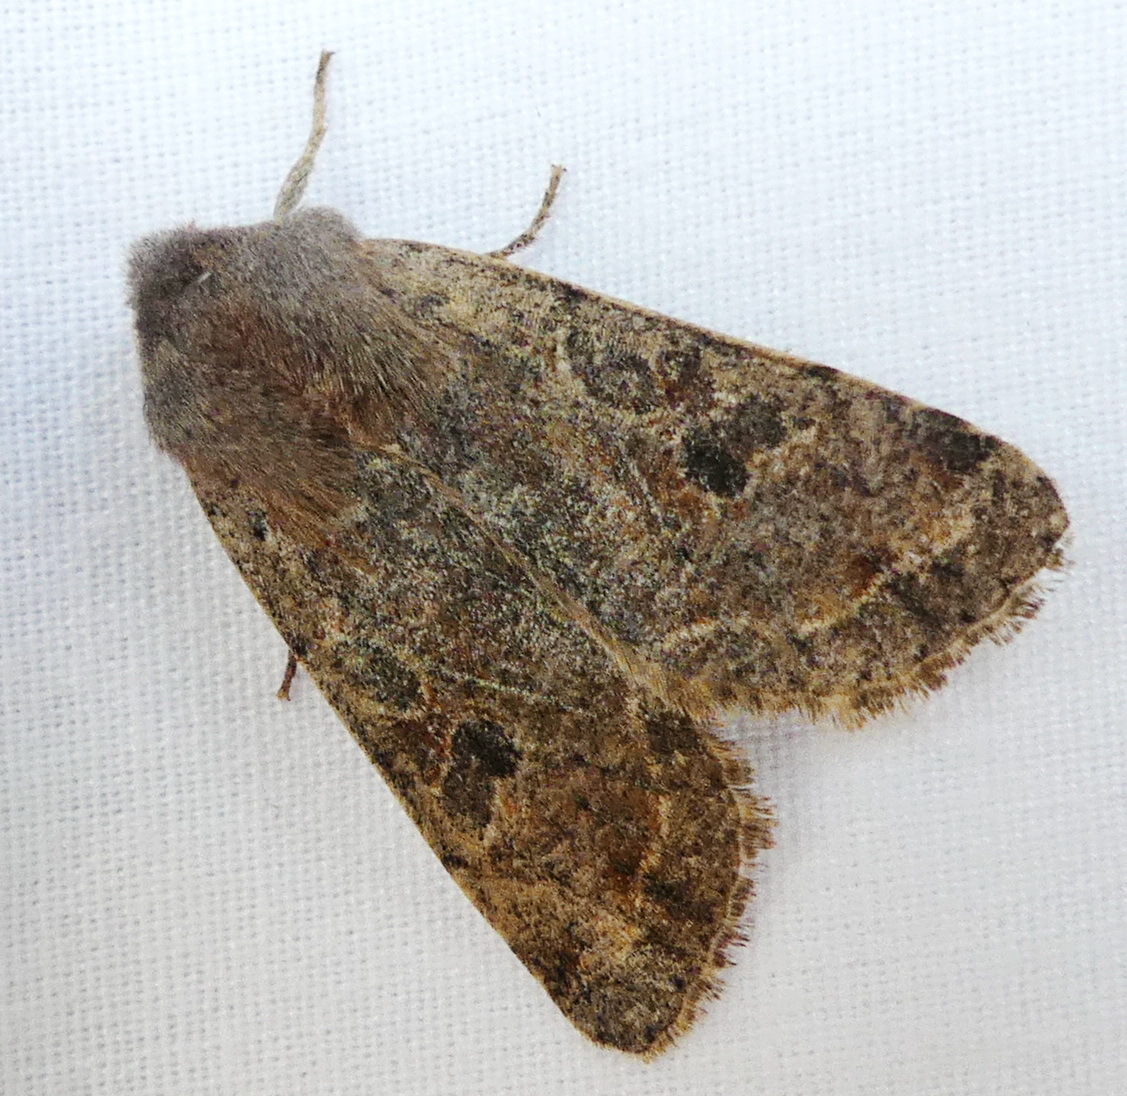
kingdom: Animalia
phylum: Arthropoda
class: Insecta
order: Lepidoptera
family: Noctuidae
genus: Orthosia
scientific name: Orthosia hibisci
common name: Green fruitworm
